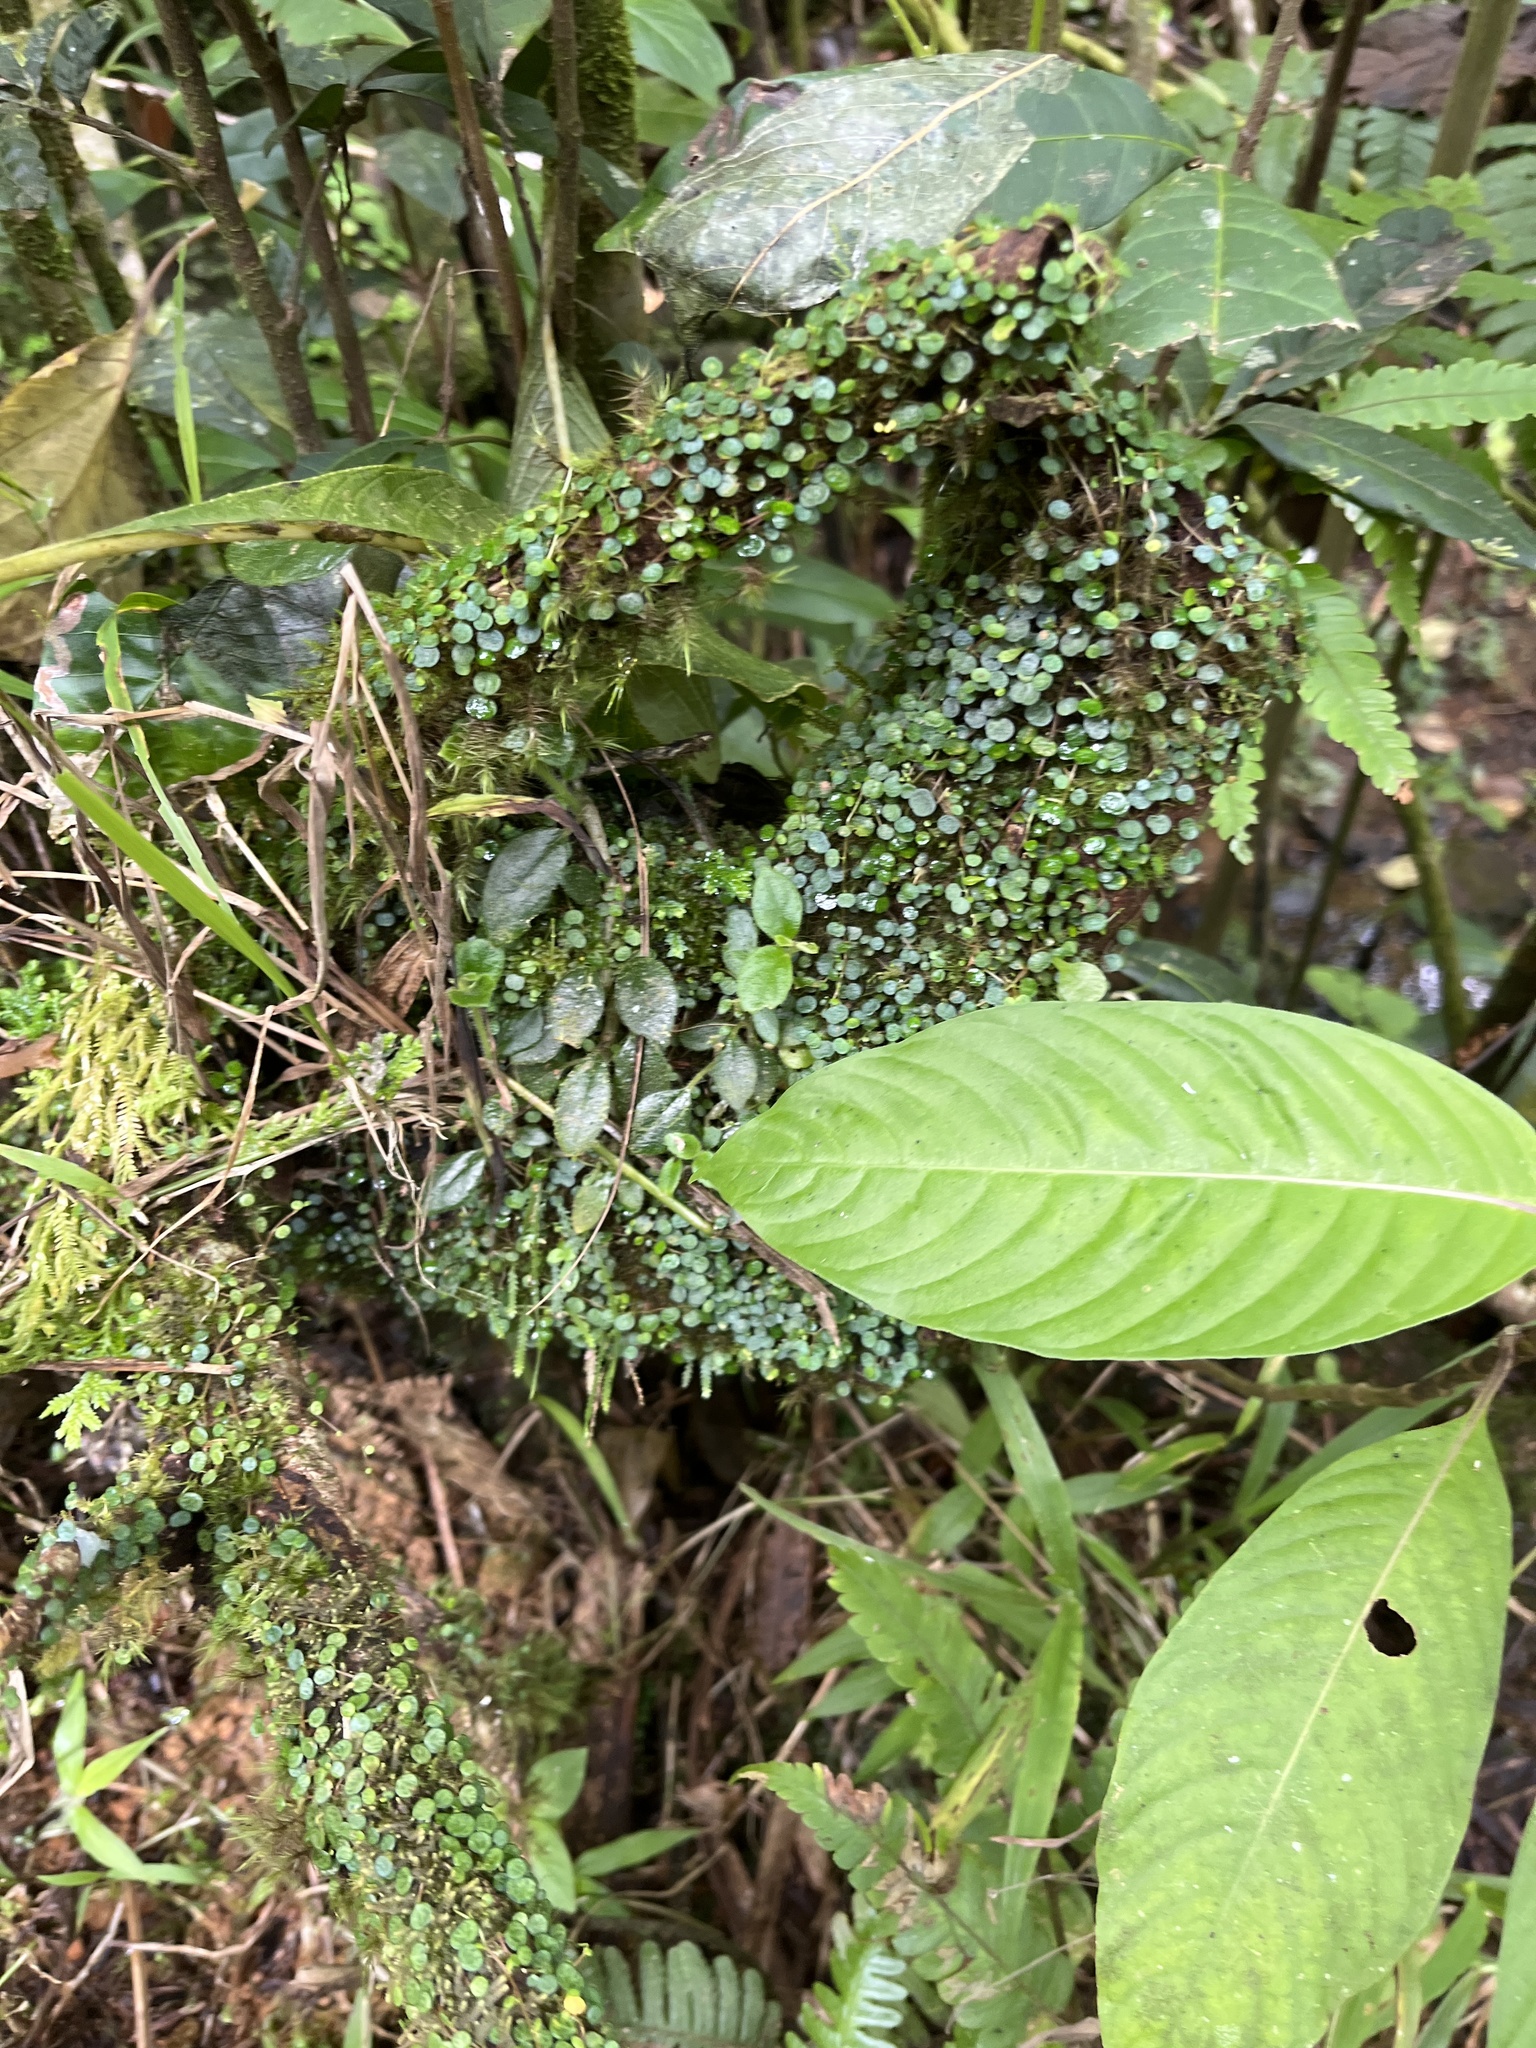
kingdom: Plantae
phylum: Tracheophyta
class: Magnoliopsida
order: Piperales
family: Piperaceae
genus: Peperomia
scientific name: Peperomia emarginella
